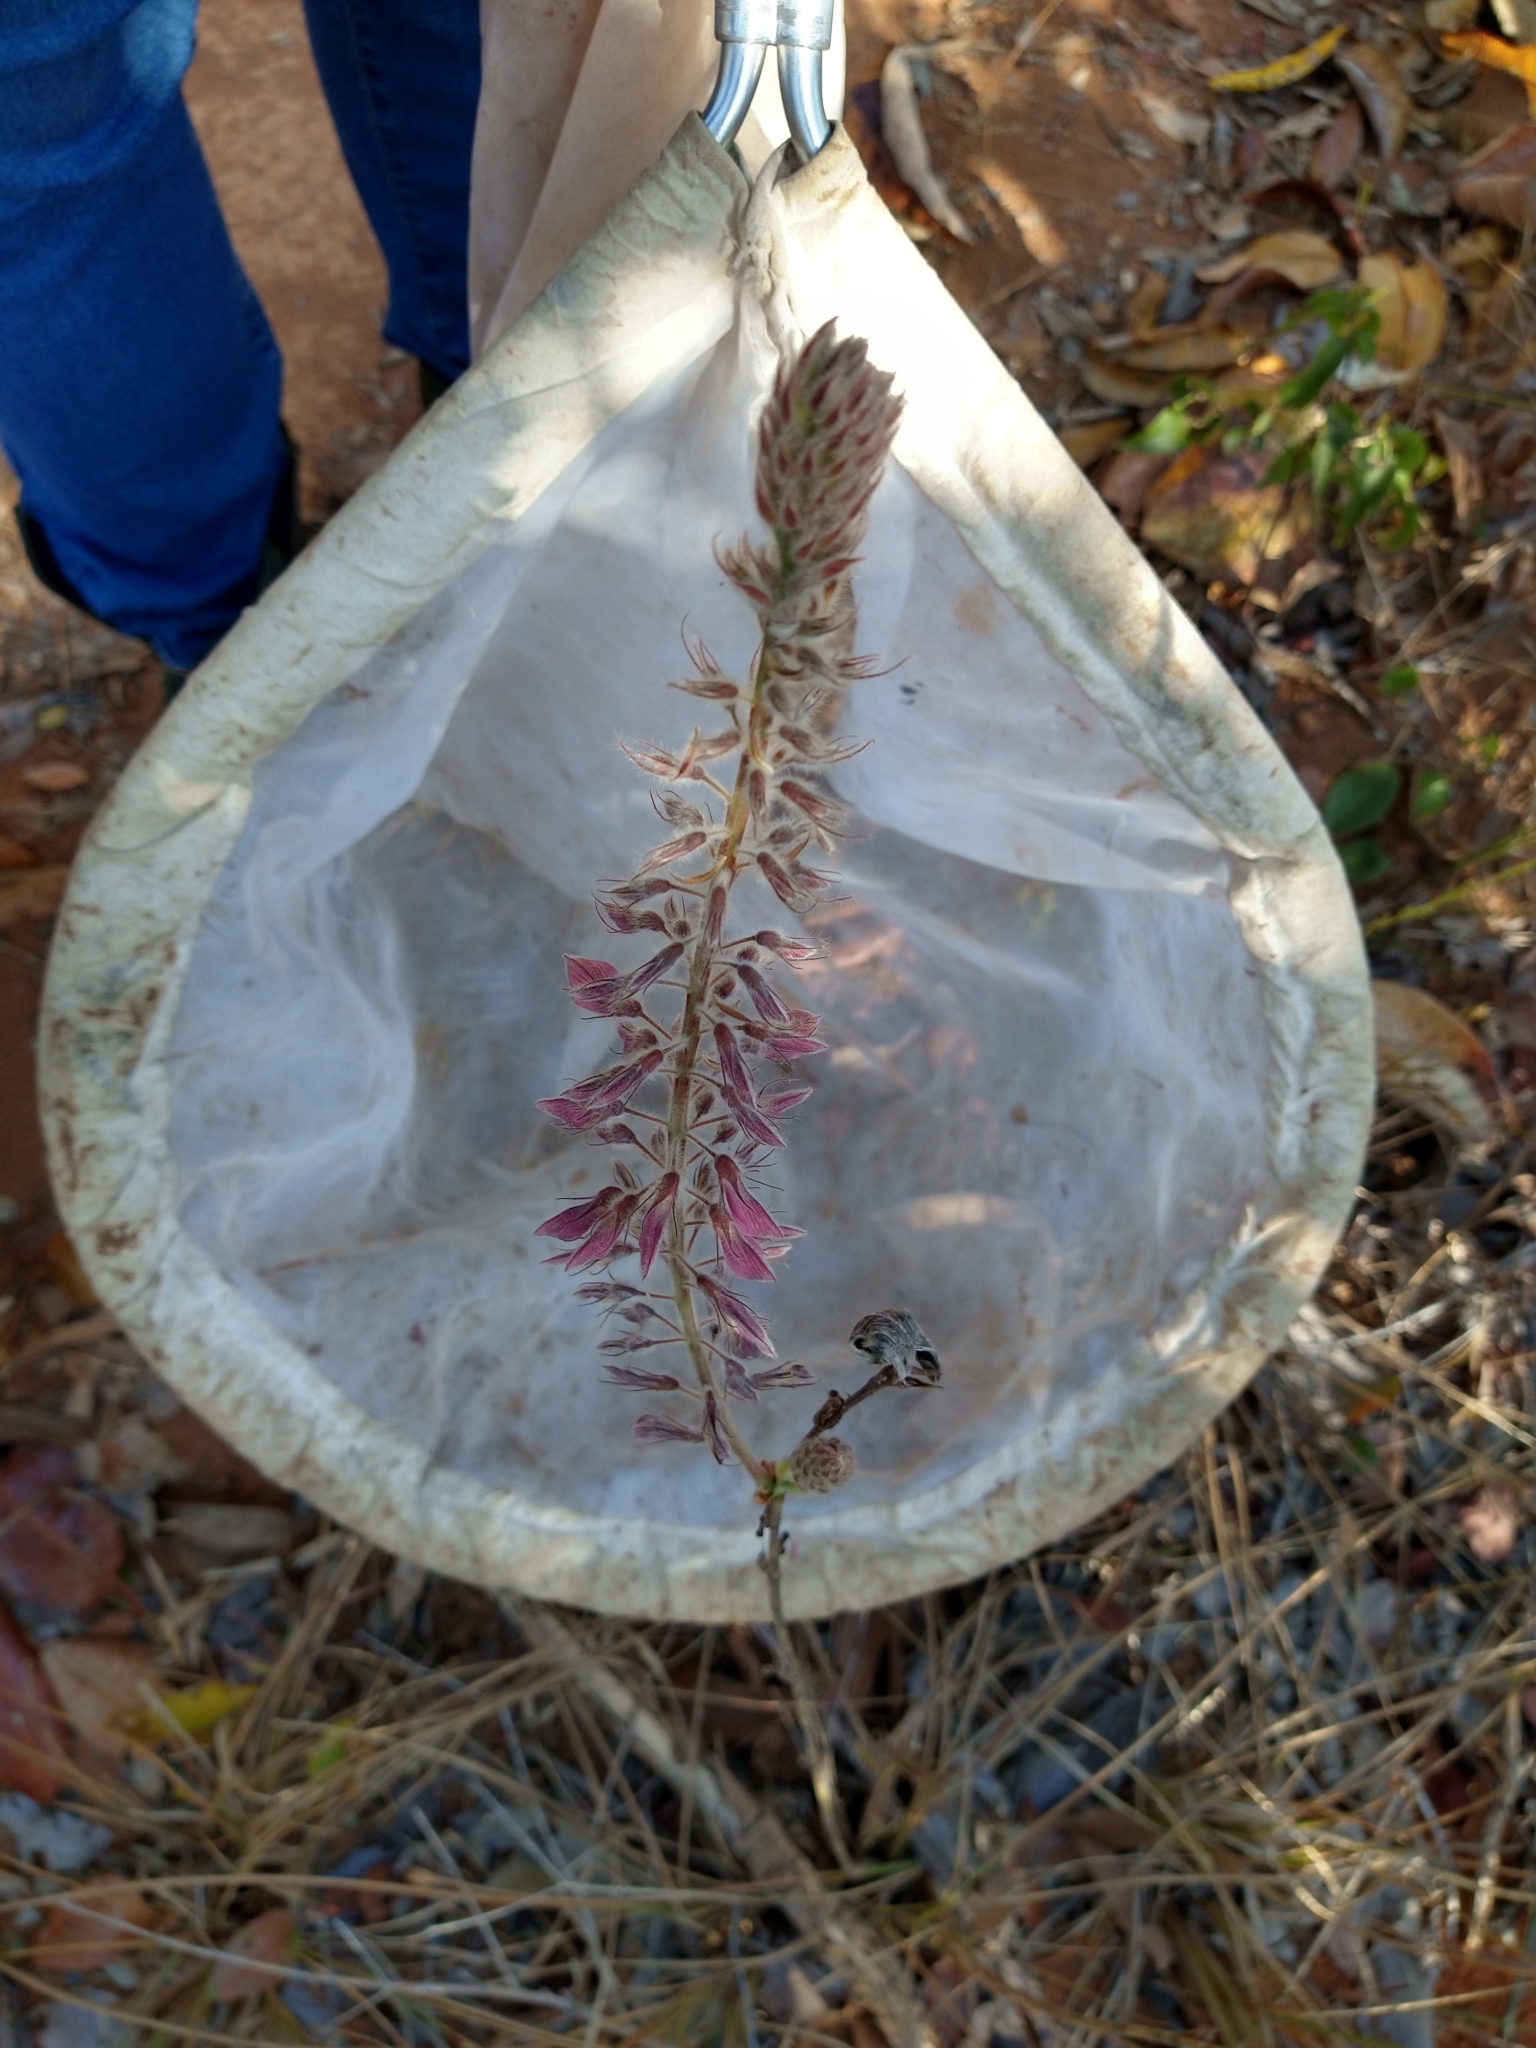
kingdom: Plantae
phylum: Tracheophyta
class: Magnoliopsida
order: Fabales
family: Fabaceae
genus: Eriosema
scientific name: Eriosema defoliatum
